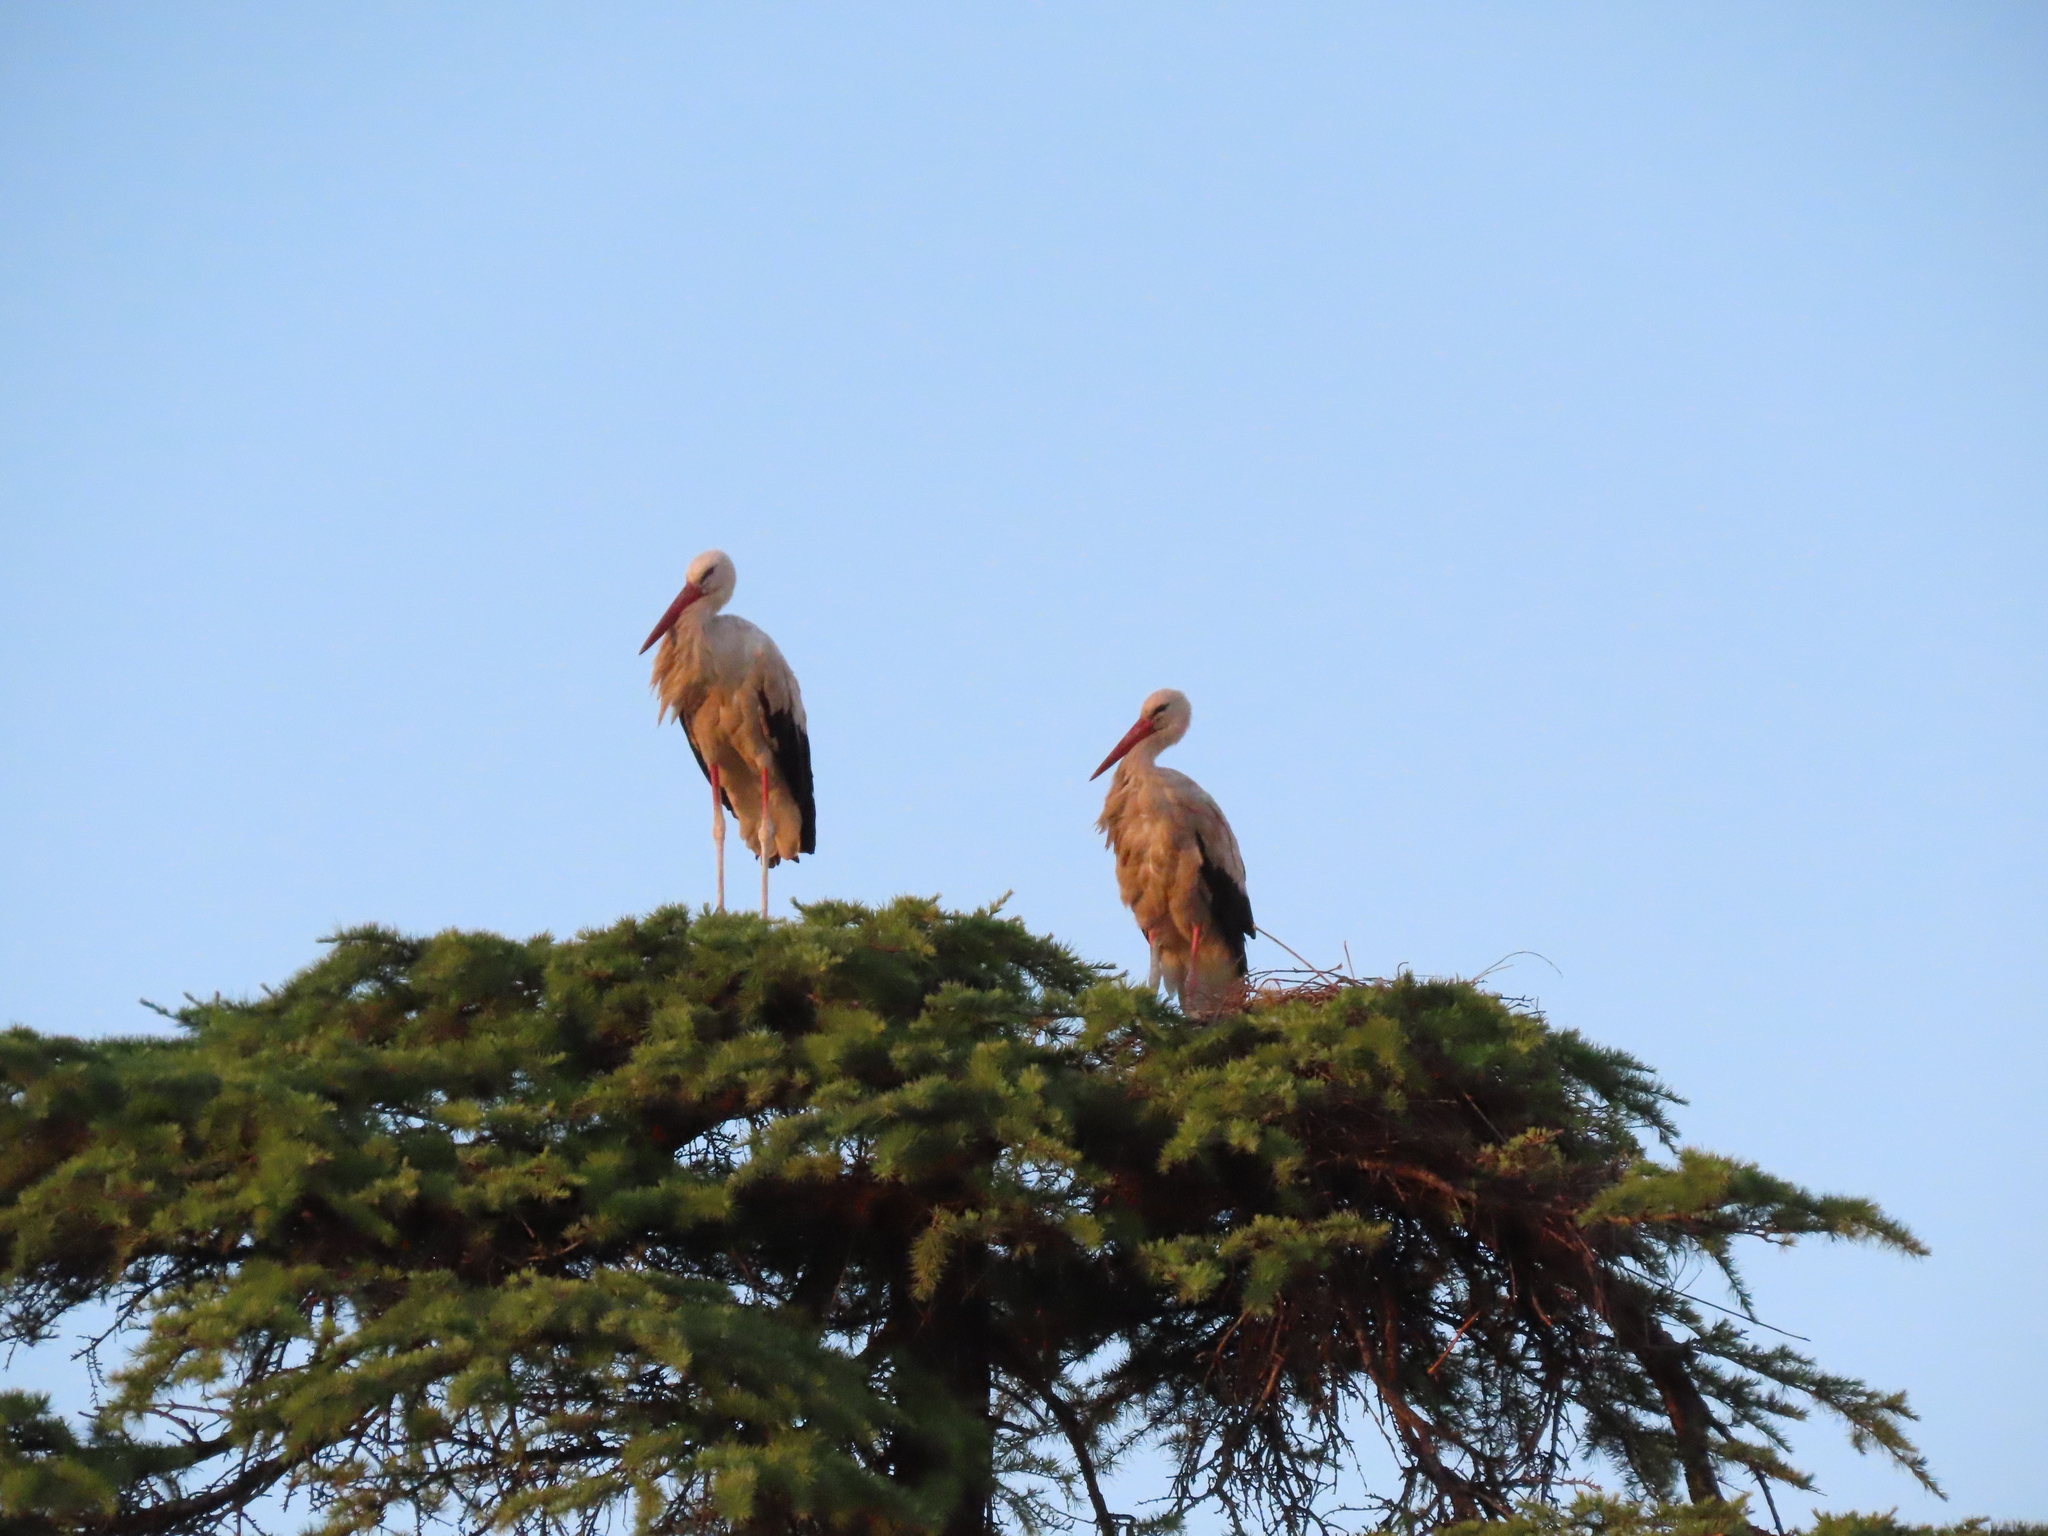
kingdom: Animalia
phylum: Chordata
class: Aves
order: Ciconiiformes
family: Ciconiidae
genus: Ciconia
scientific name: Ciconia ciconia
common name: White stork
